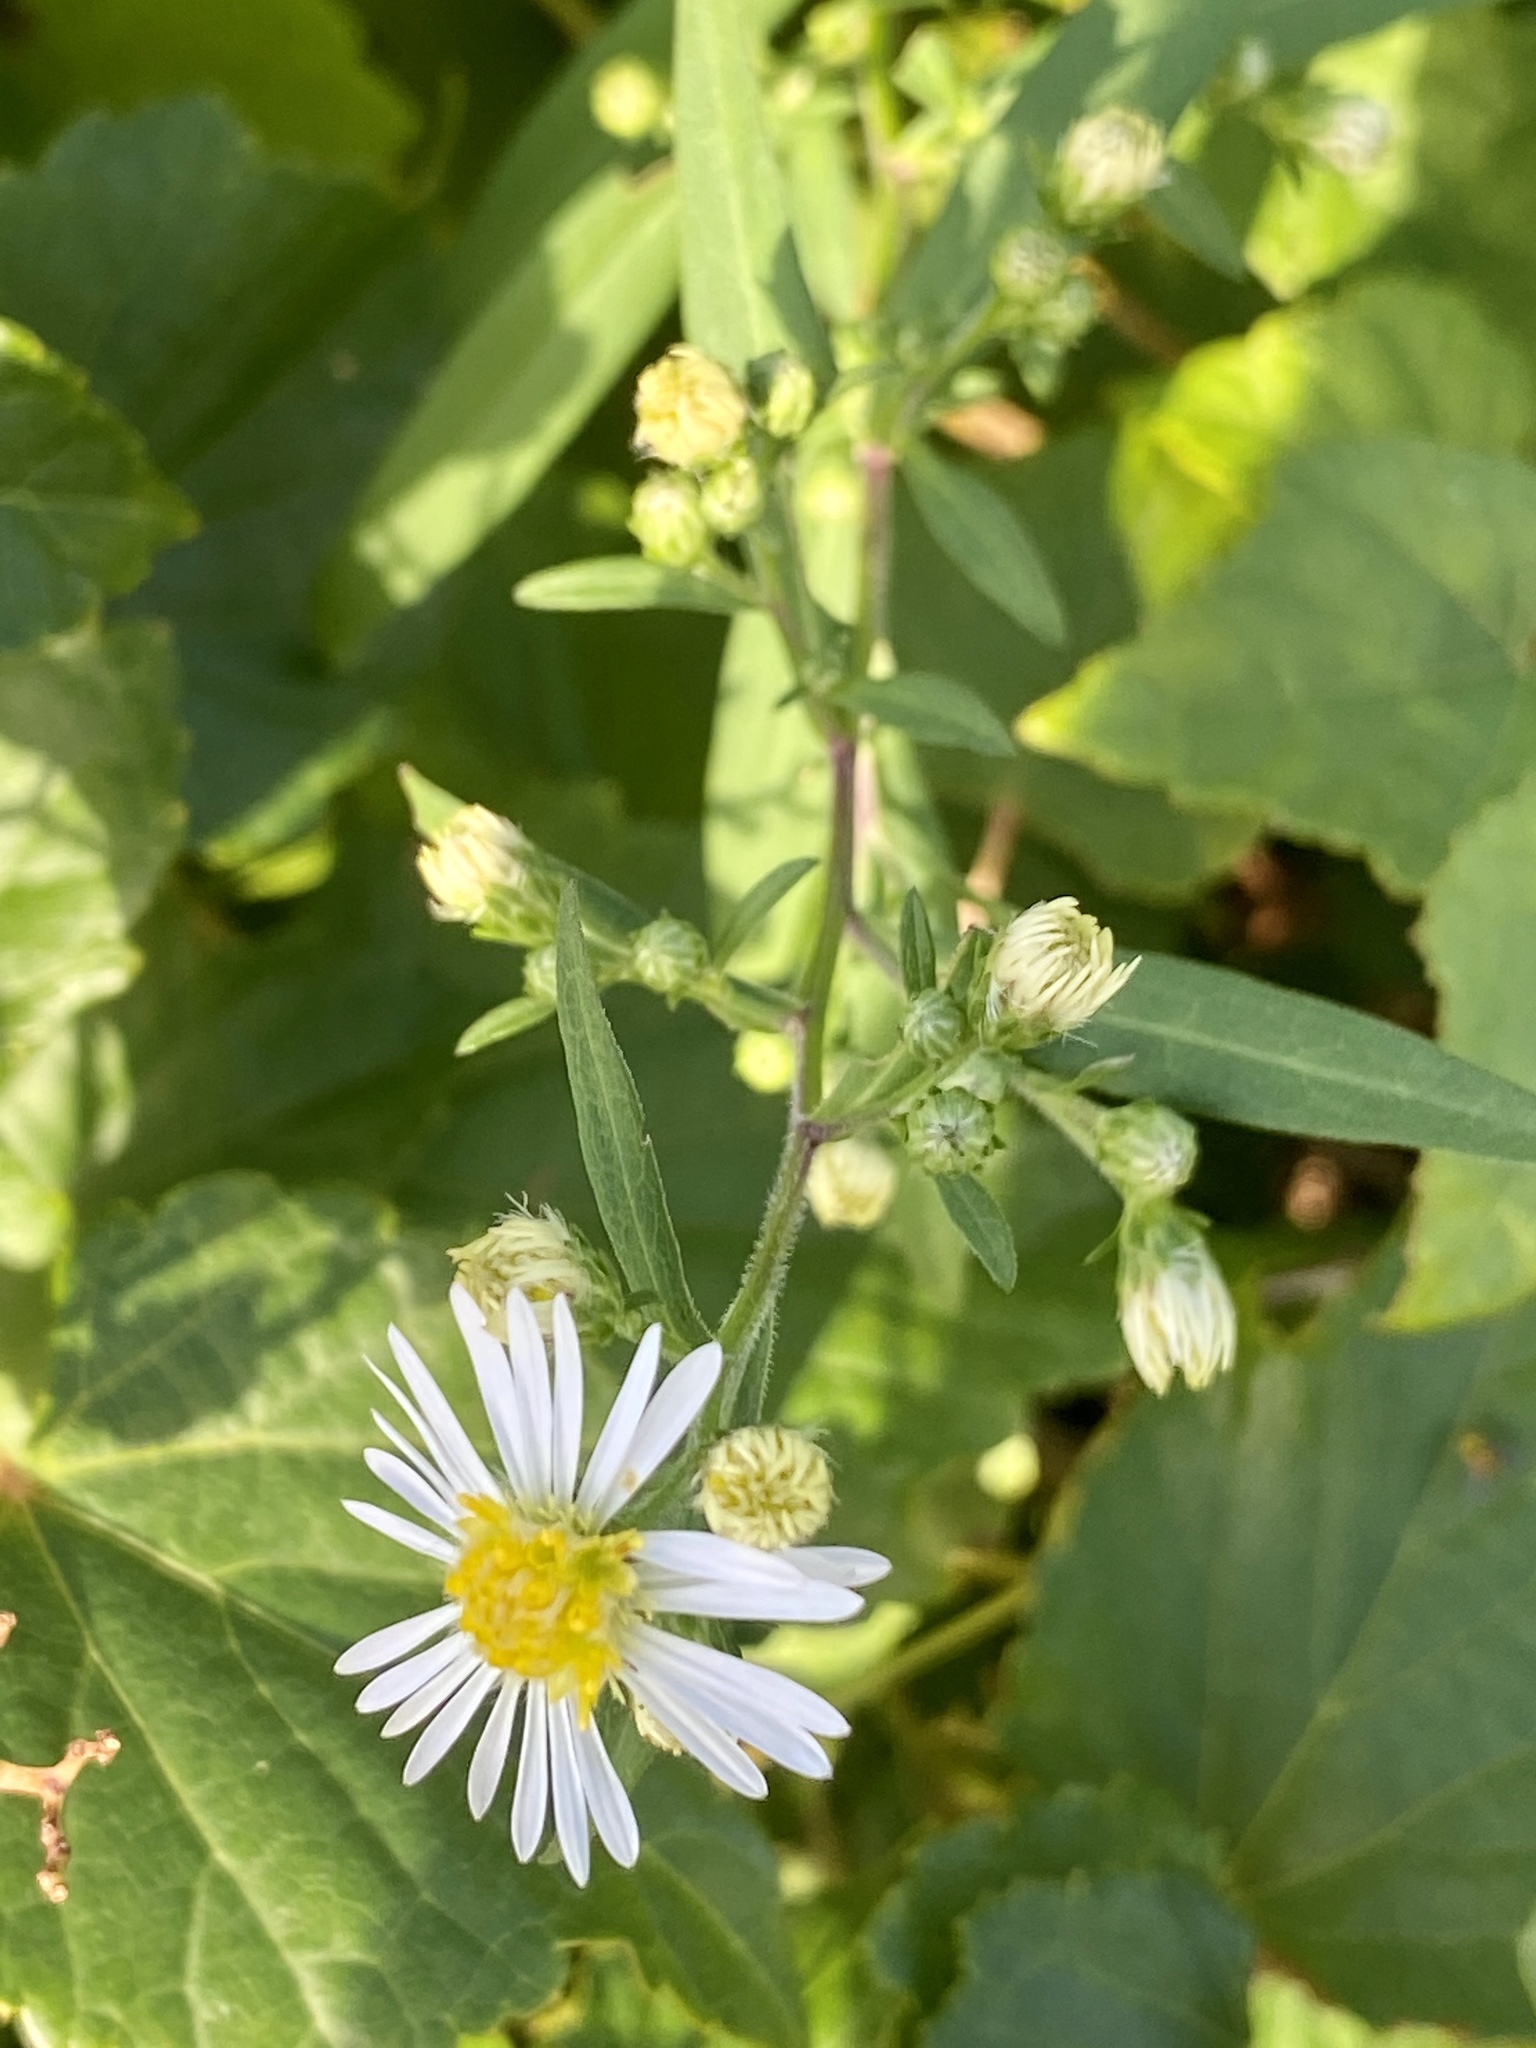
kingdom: Plantae
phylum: Tracheophyta
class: Magnoliopsida
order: Asterales
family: Asteraceae
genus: Symphyotrichum
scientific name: Symphyotrichum lanceolatum
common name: Panicled aster
